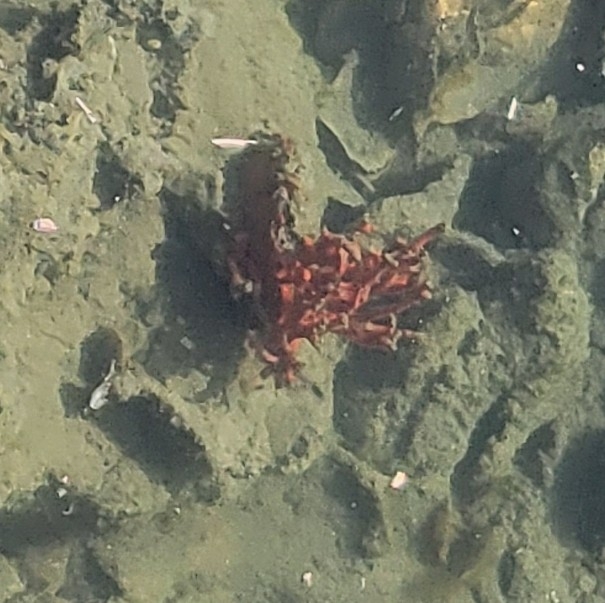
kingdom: Animalia
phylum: Porifera
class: Demospongiae
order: Poecilosclerida
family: Microcionidae
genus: Clathria
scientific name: Clathria prolifera
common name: Red beard sponge
